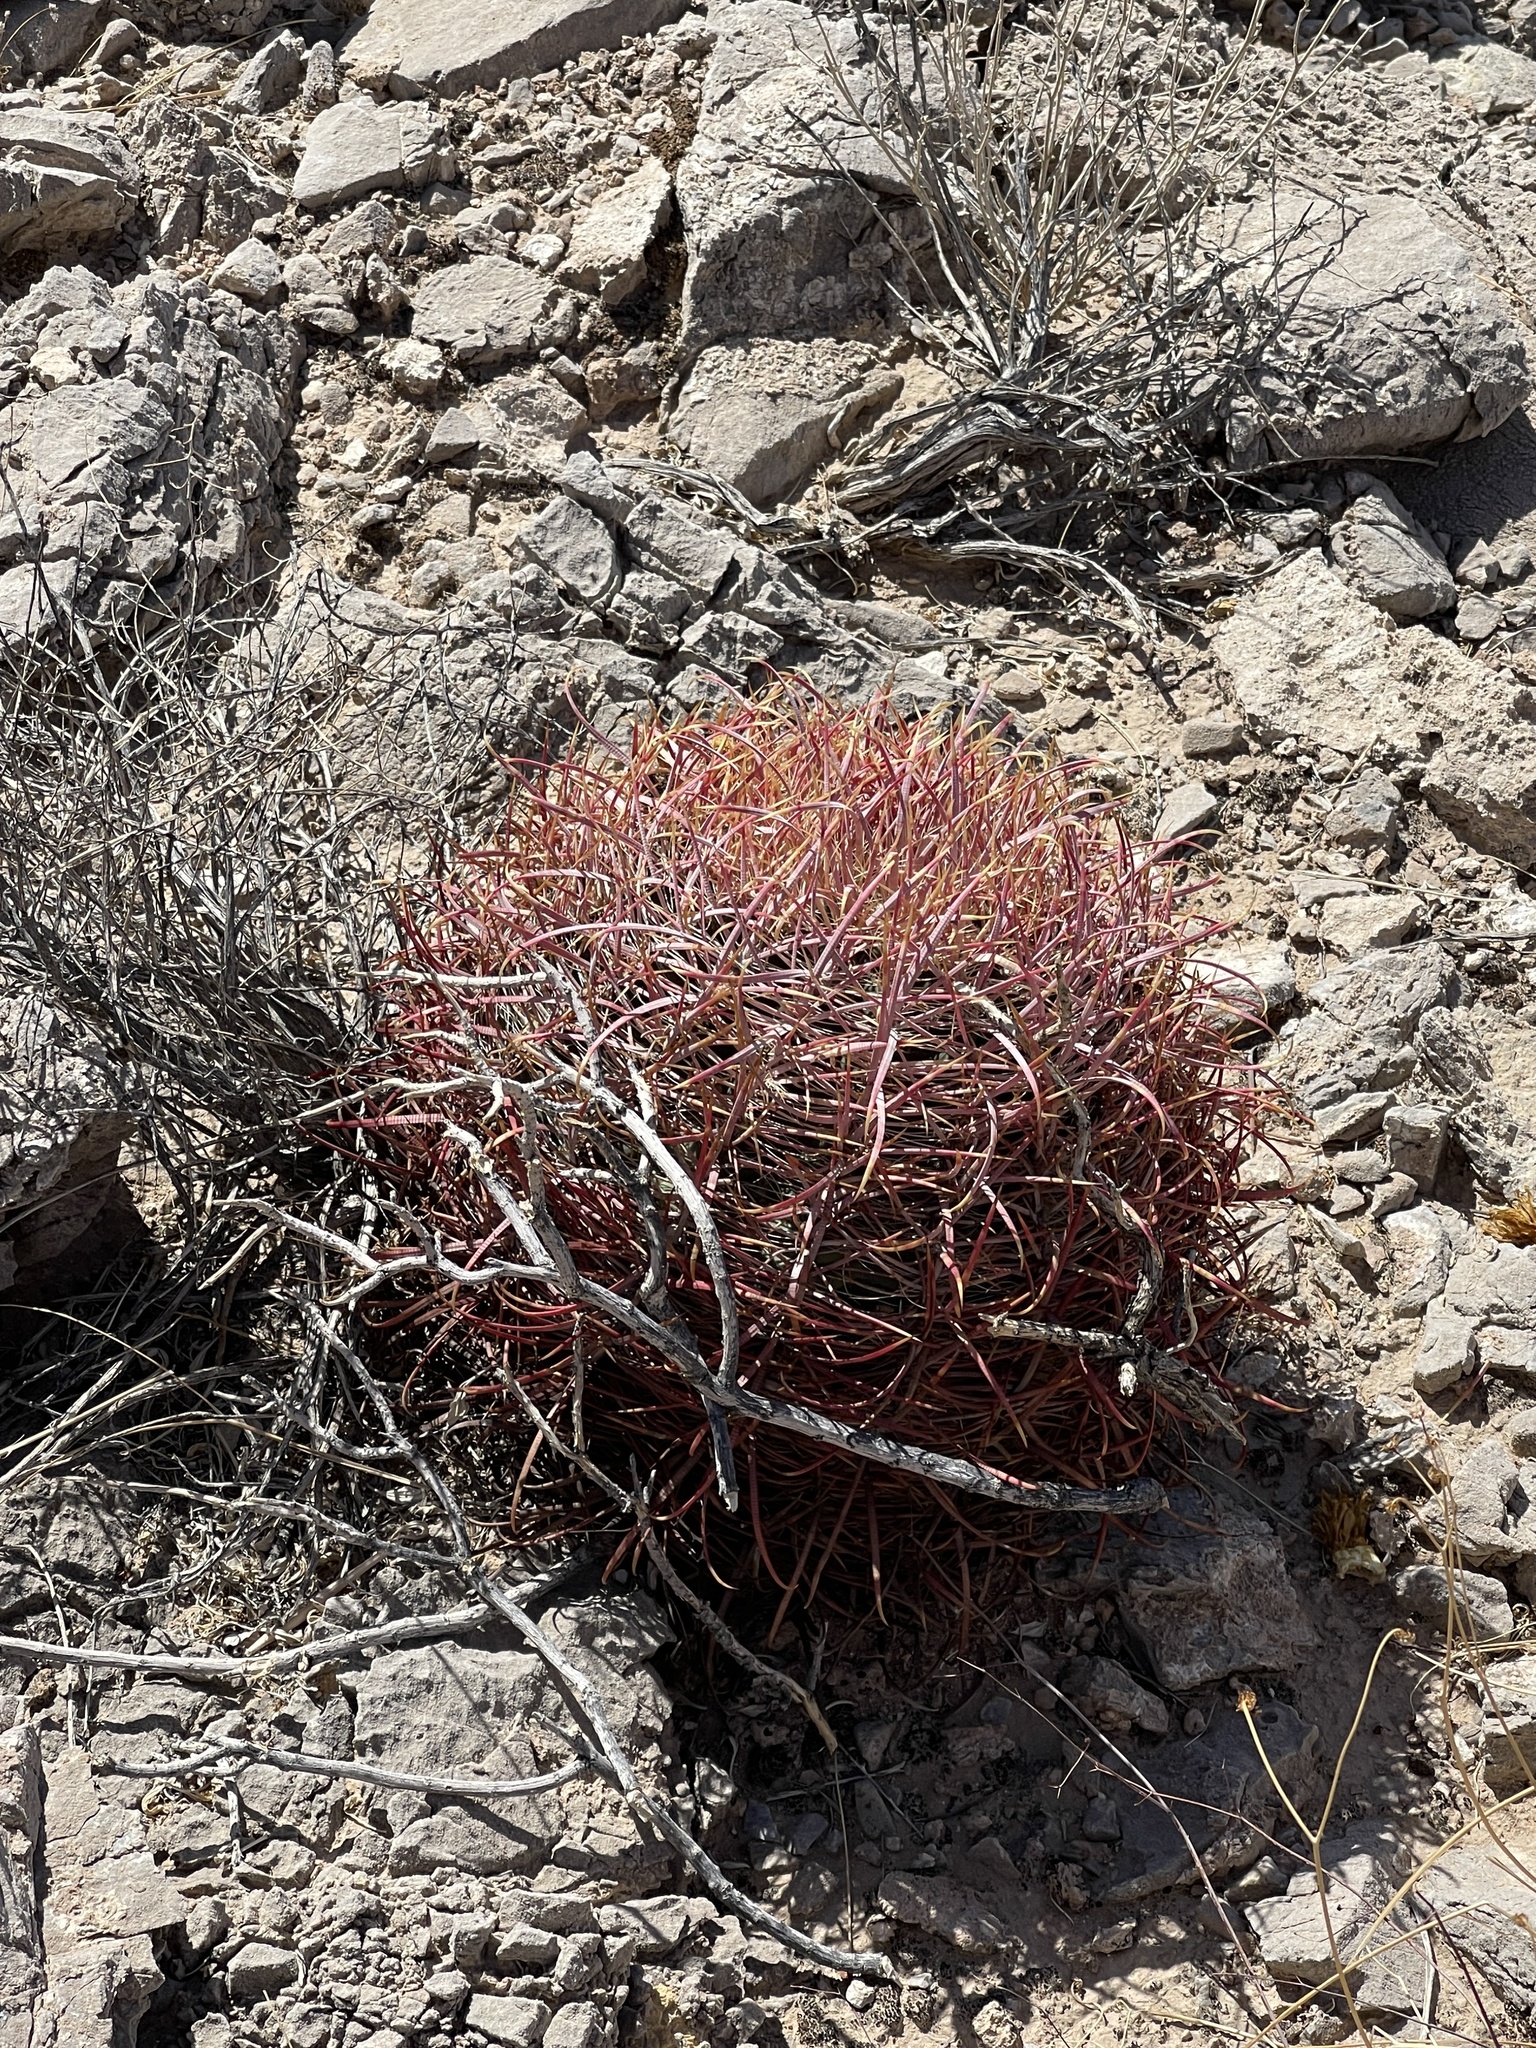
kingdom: Plantae
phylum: Tracheophyta
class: Magnoliopsida
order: Caryophyllales
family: Cactaceae
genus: Ferocactus
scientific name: Ferocactus cylindraceus
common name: California barrel cactus
